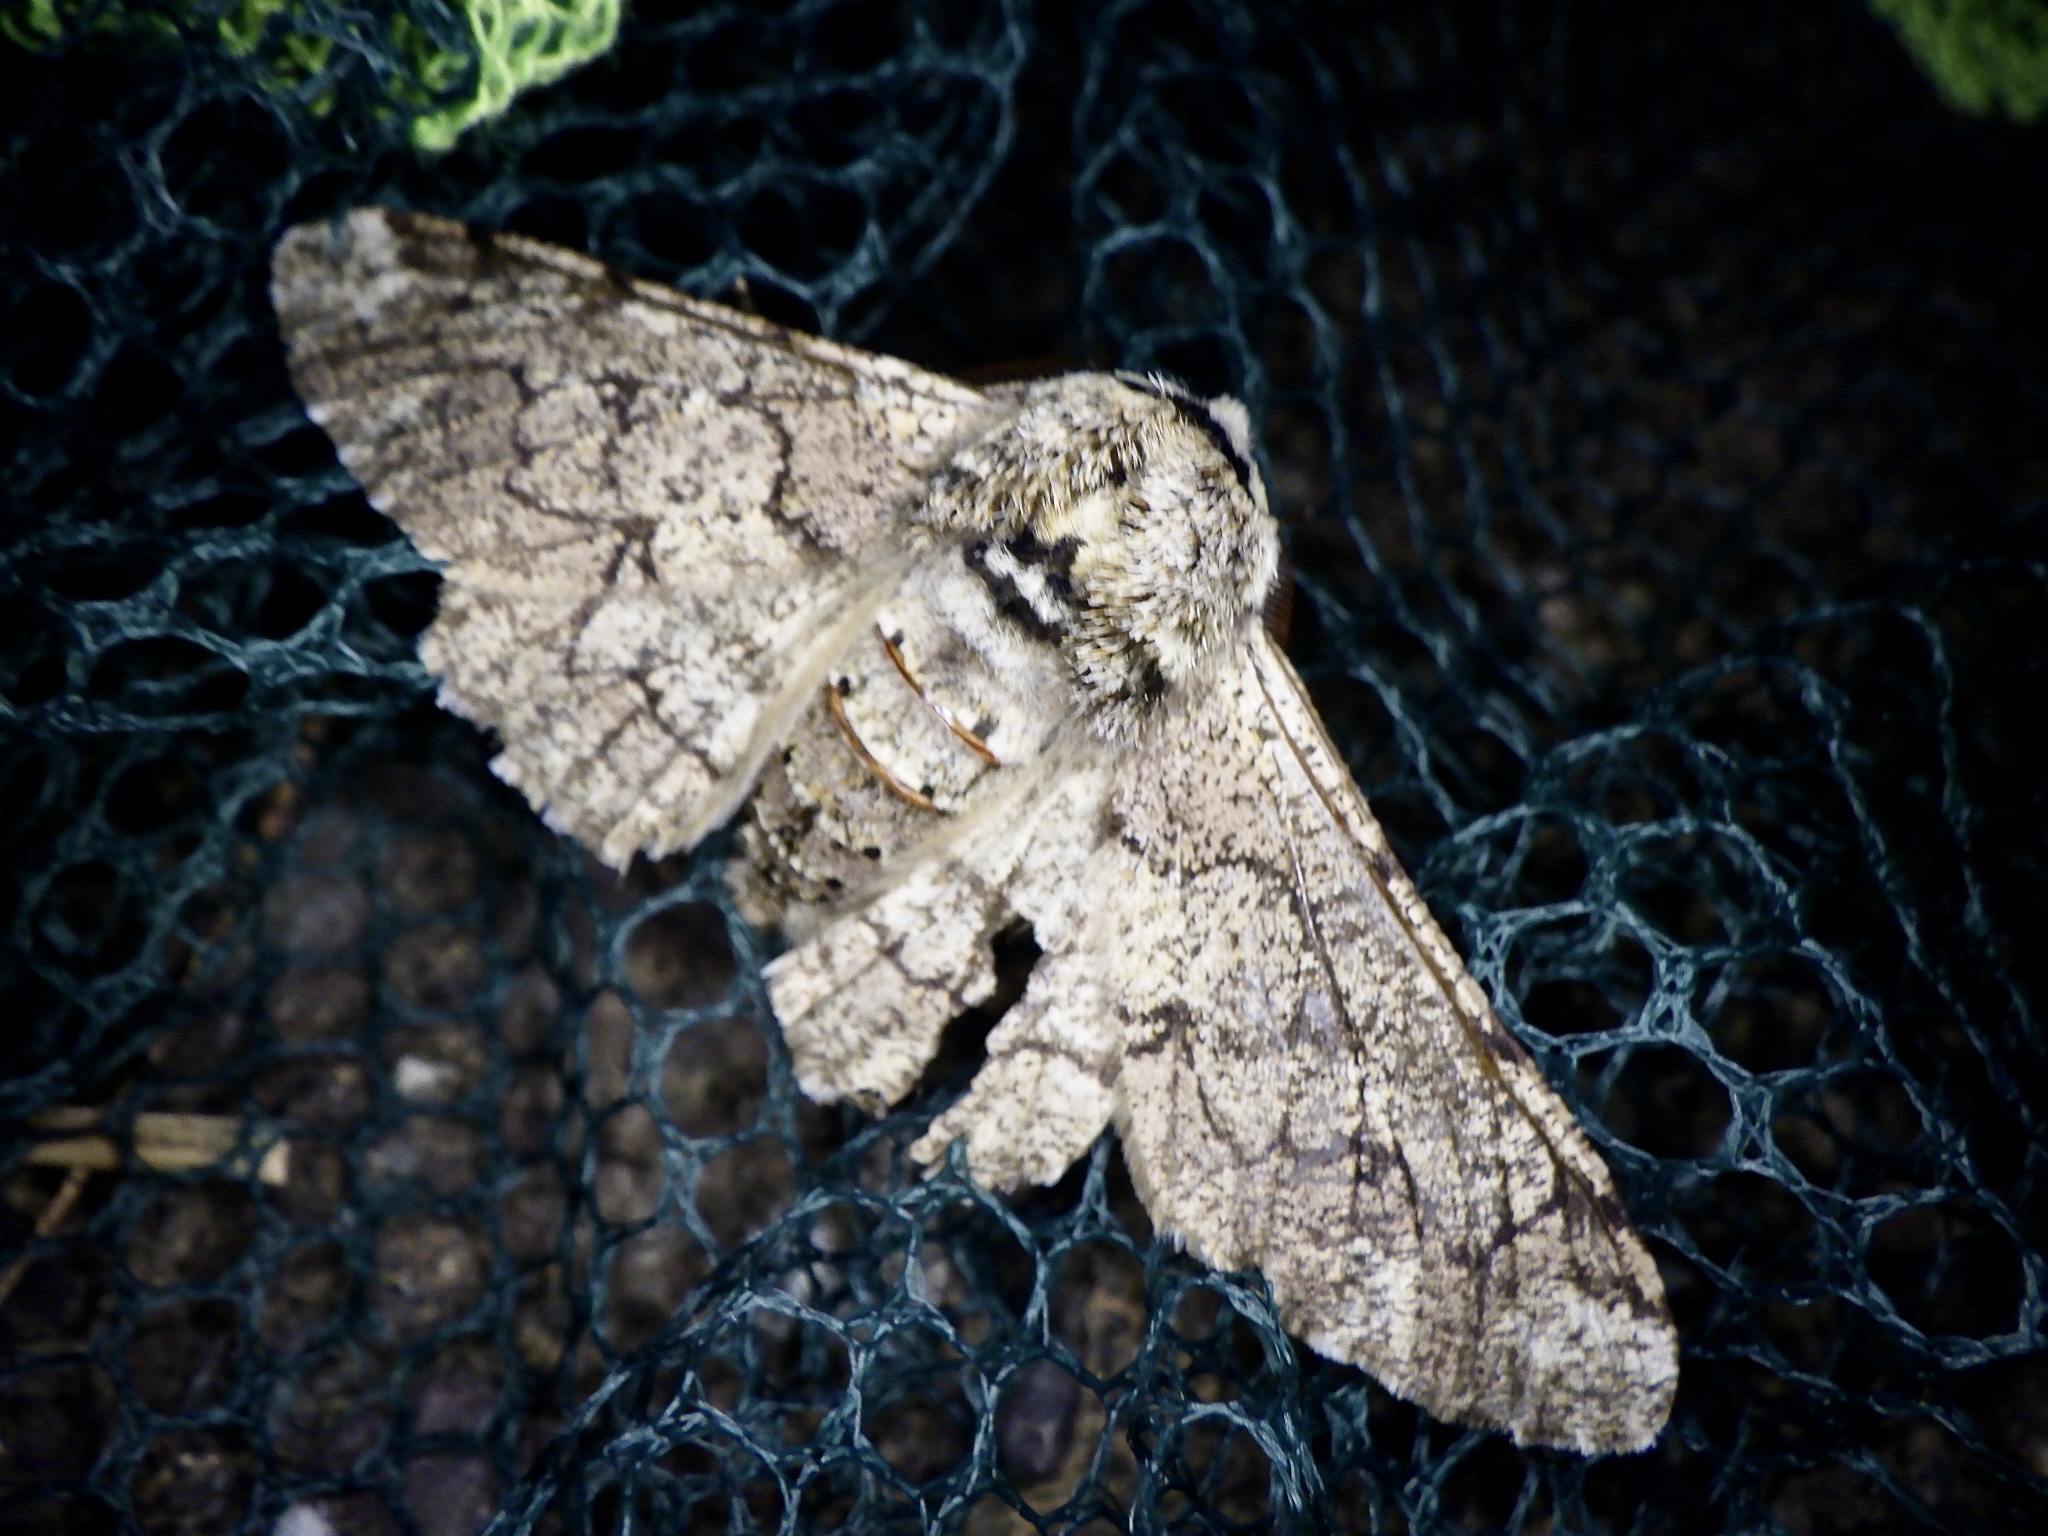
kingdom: Animalia
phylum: Arthropoda
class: Insecta
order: Lepidoptera
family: Geometridae
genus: Biston
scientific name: Biston robustum
